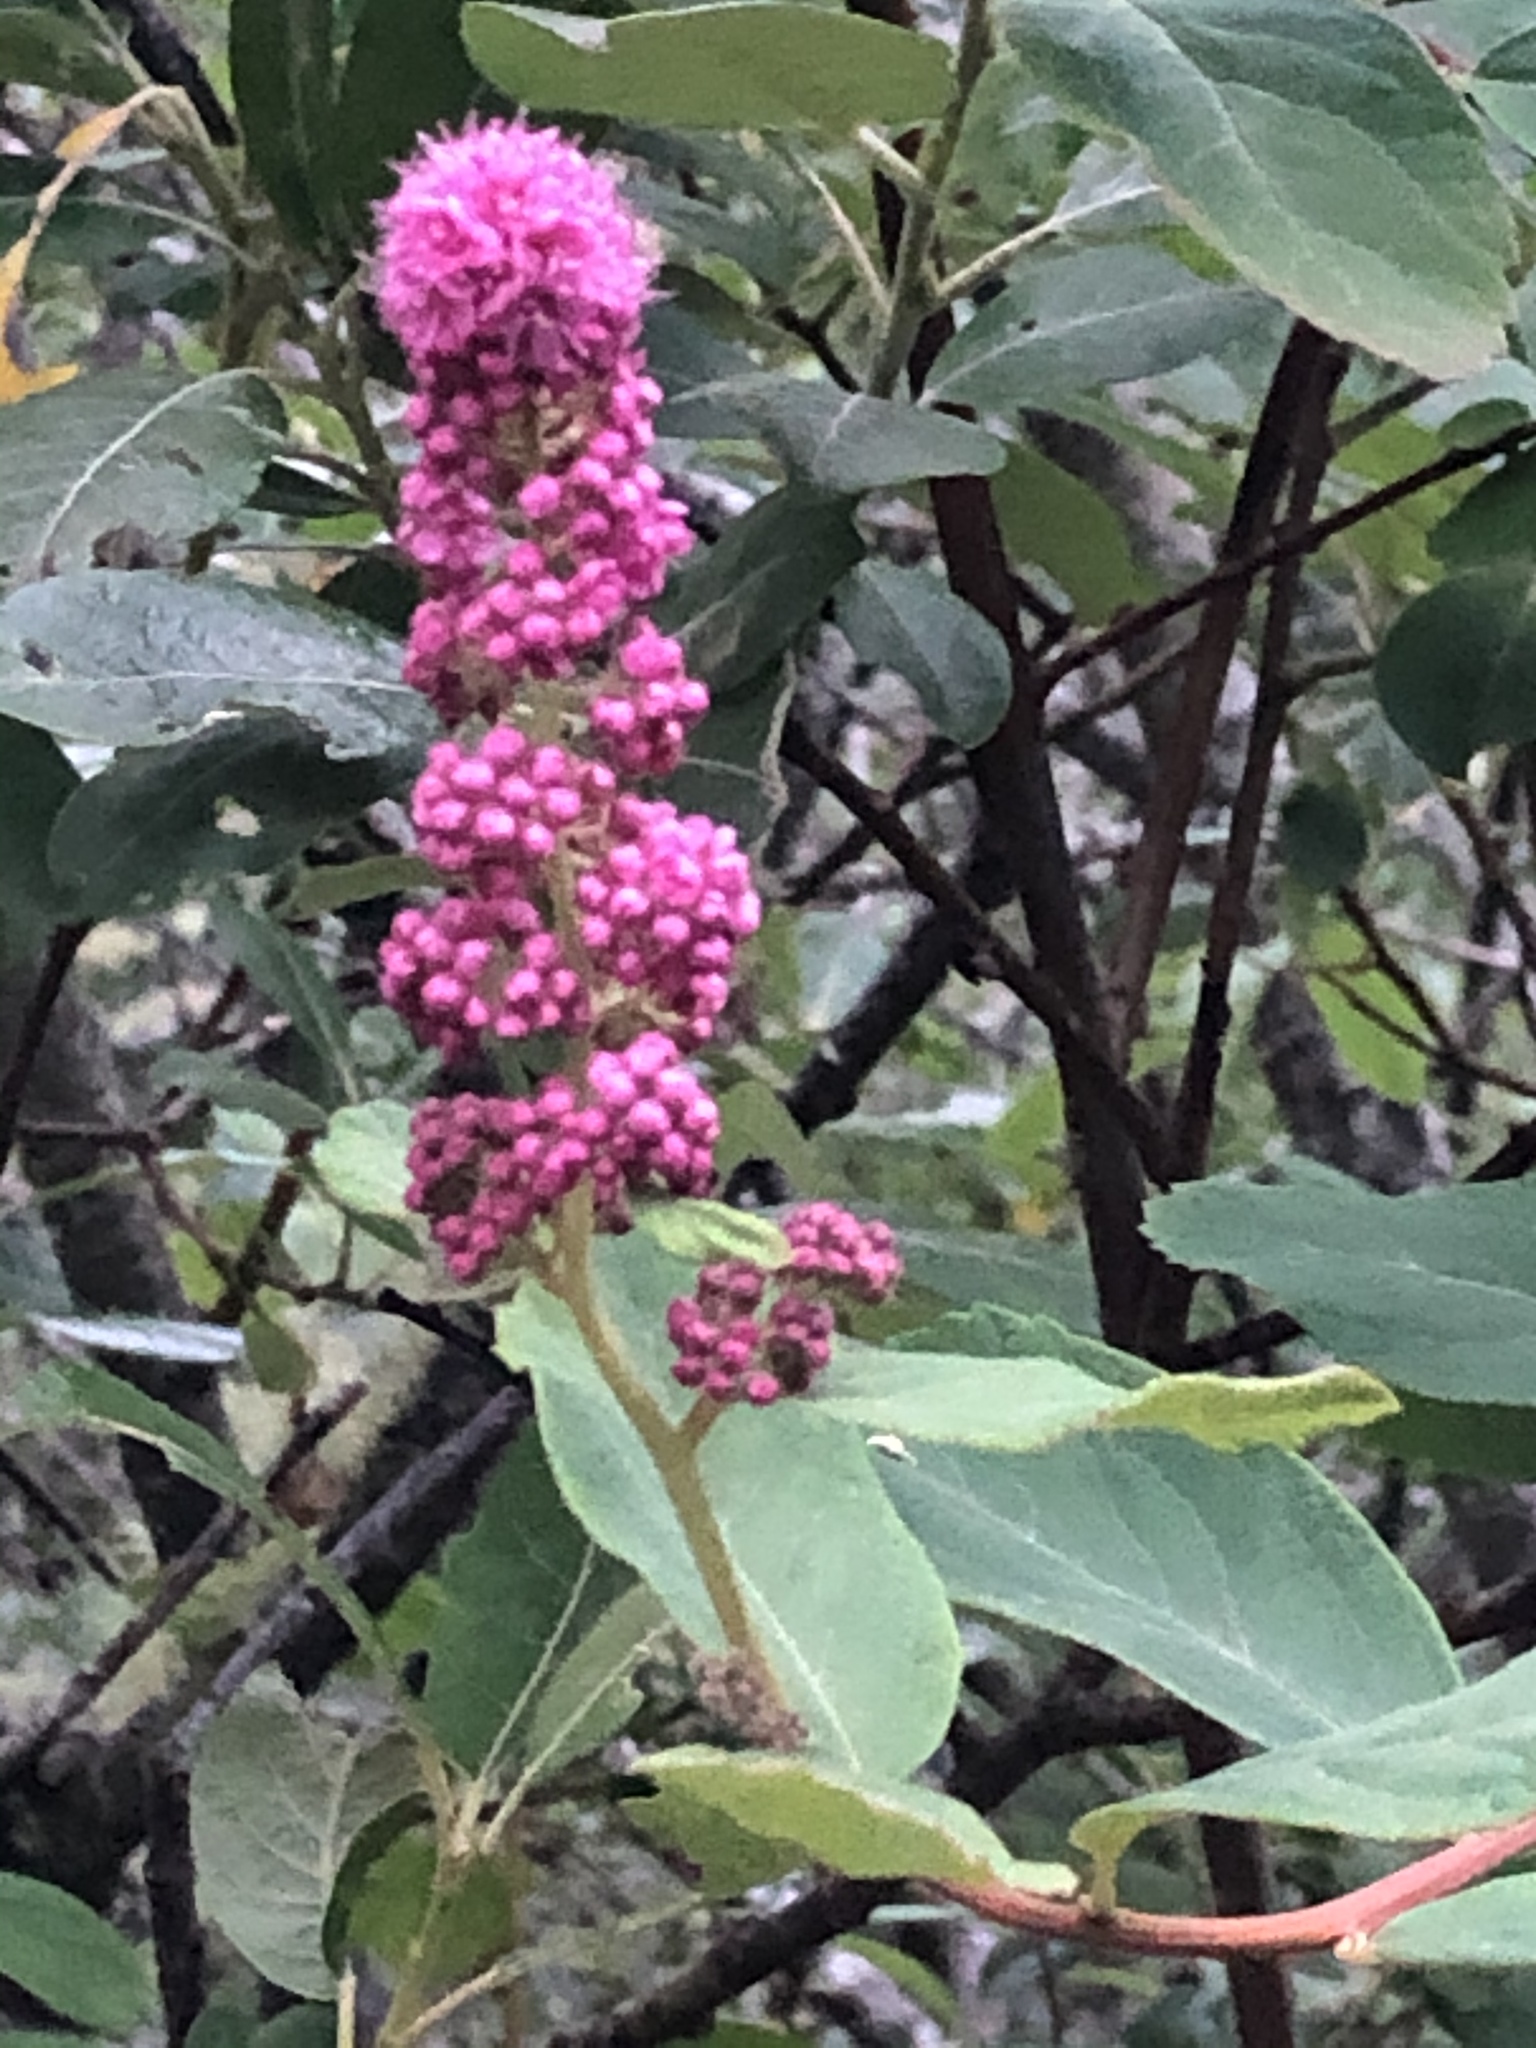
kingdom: Plantae
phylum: Tracheophyta
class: Magnoliopsida
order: Rosales
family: Rosaceae
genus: Spiraea
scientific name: Spiraea douglasii
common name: Steeplebush
